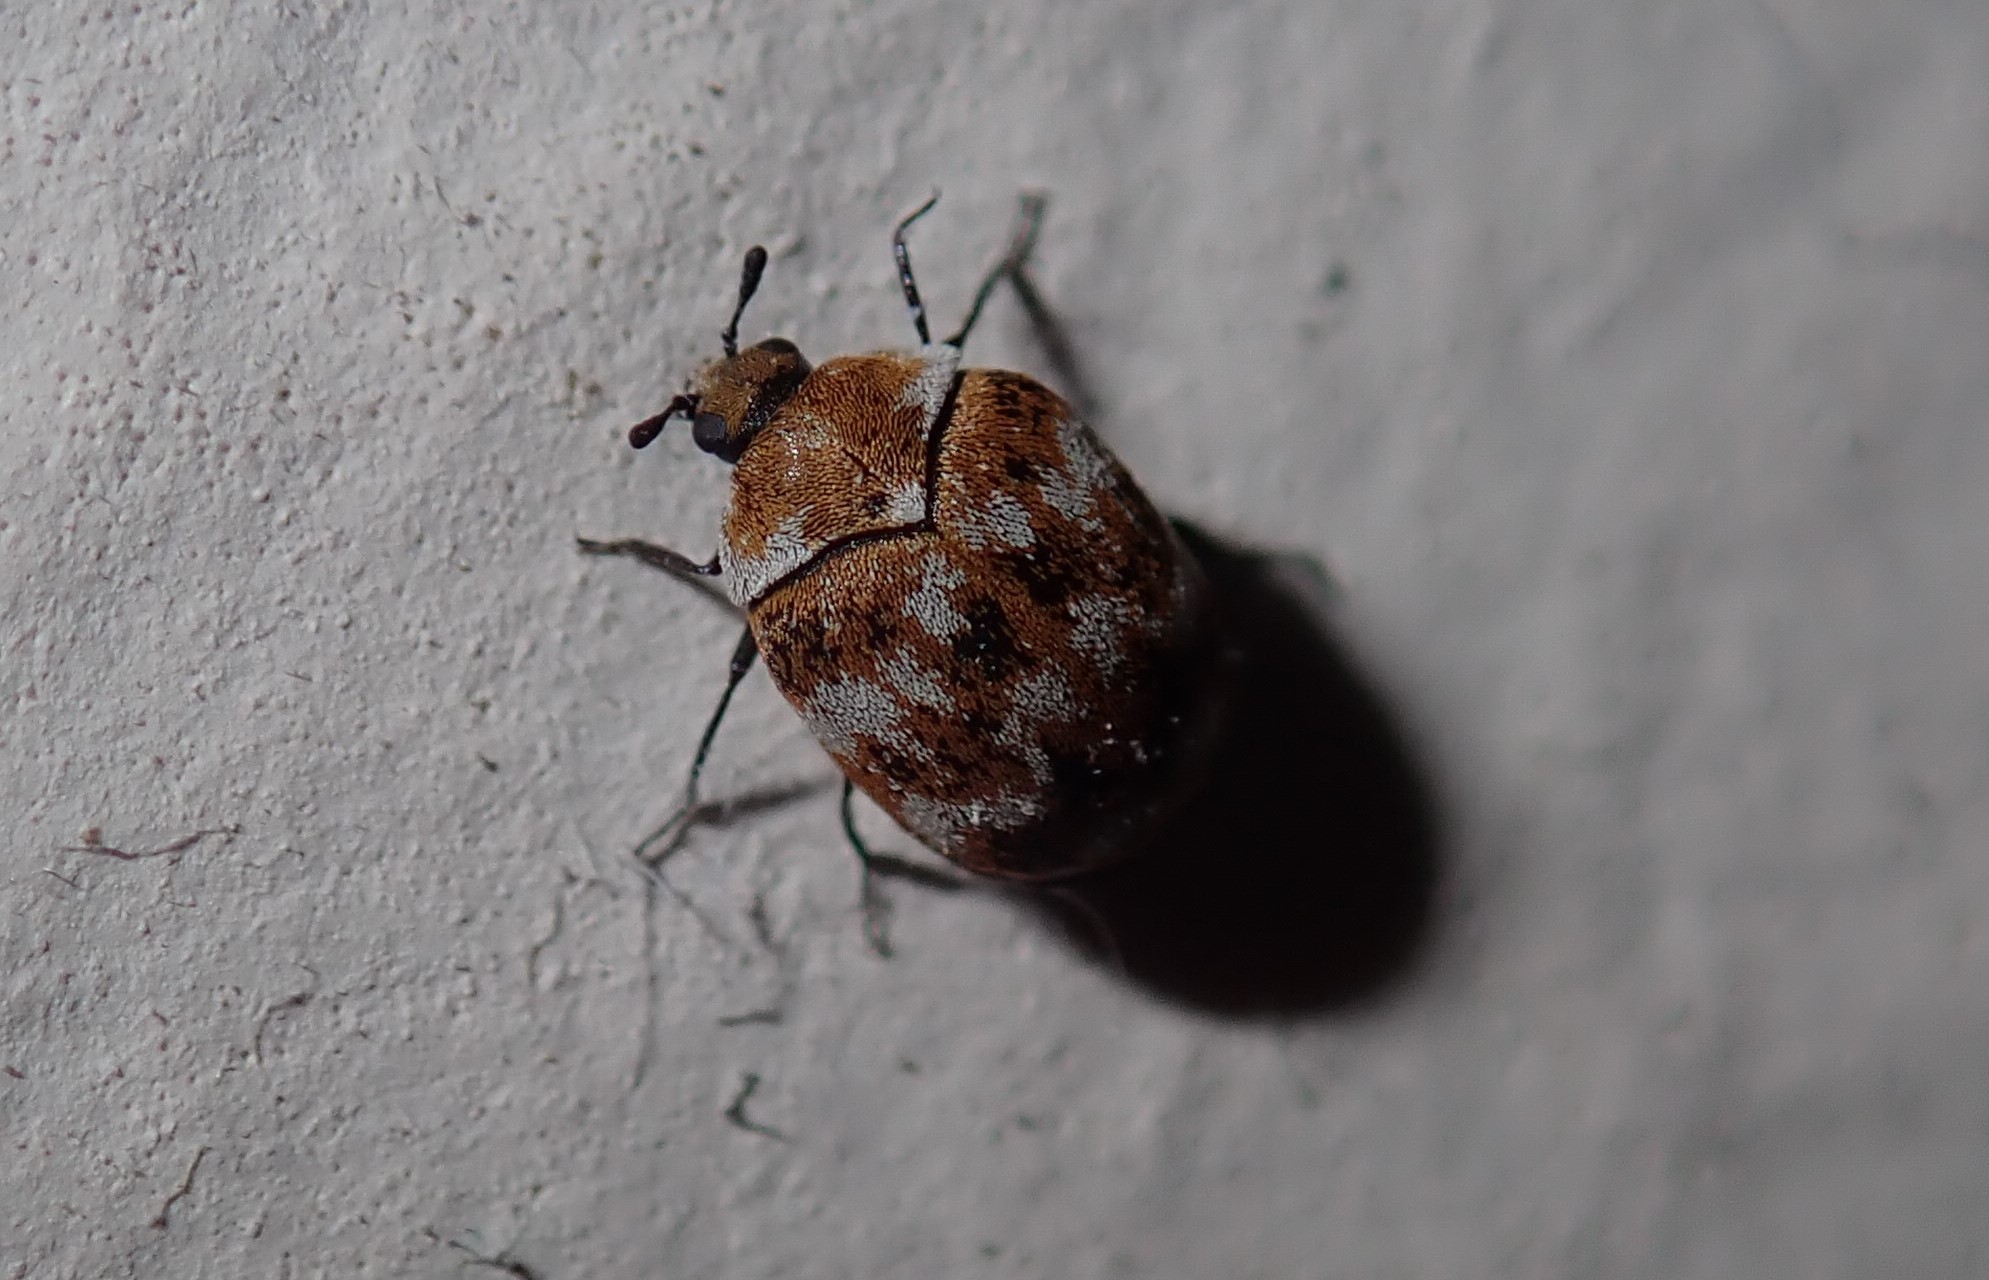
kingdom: Animalia
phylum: Arthropoda
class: Insecta
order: Coleoptera
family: Dermestidae
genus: Anthrenus
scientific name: Anthrenus verbasci
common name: Varied carpet beetle
